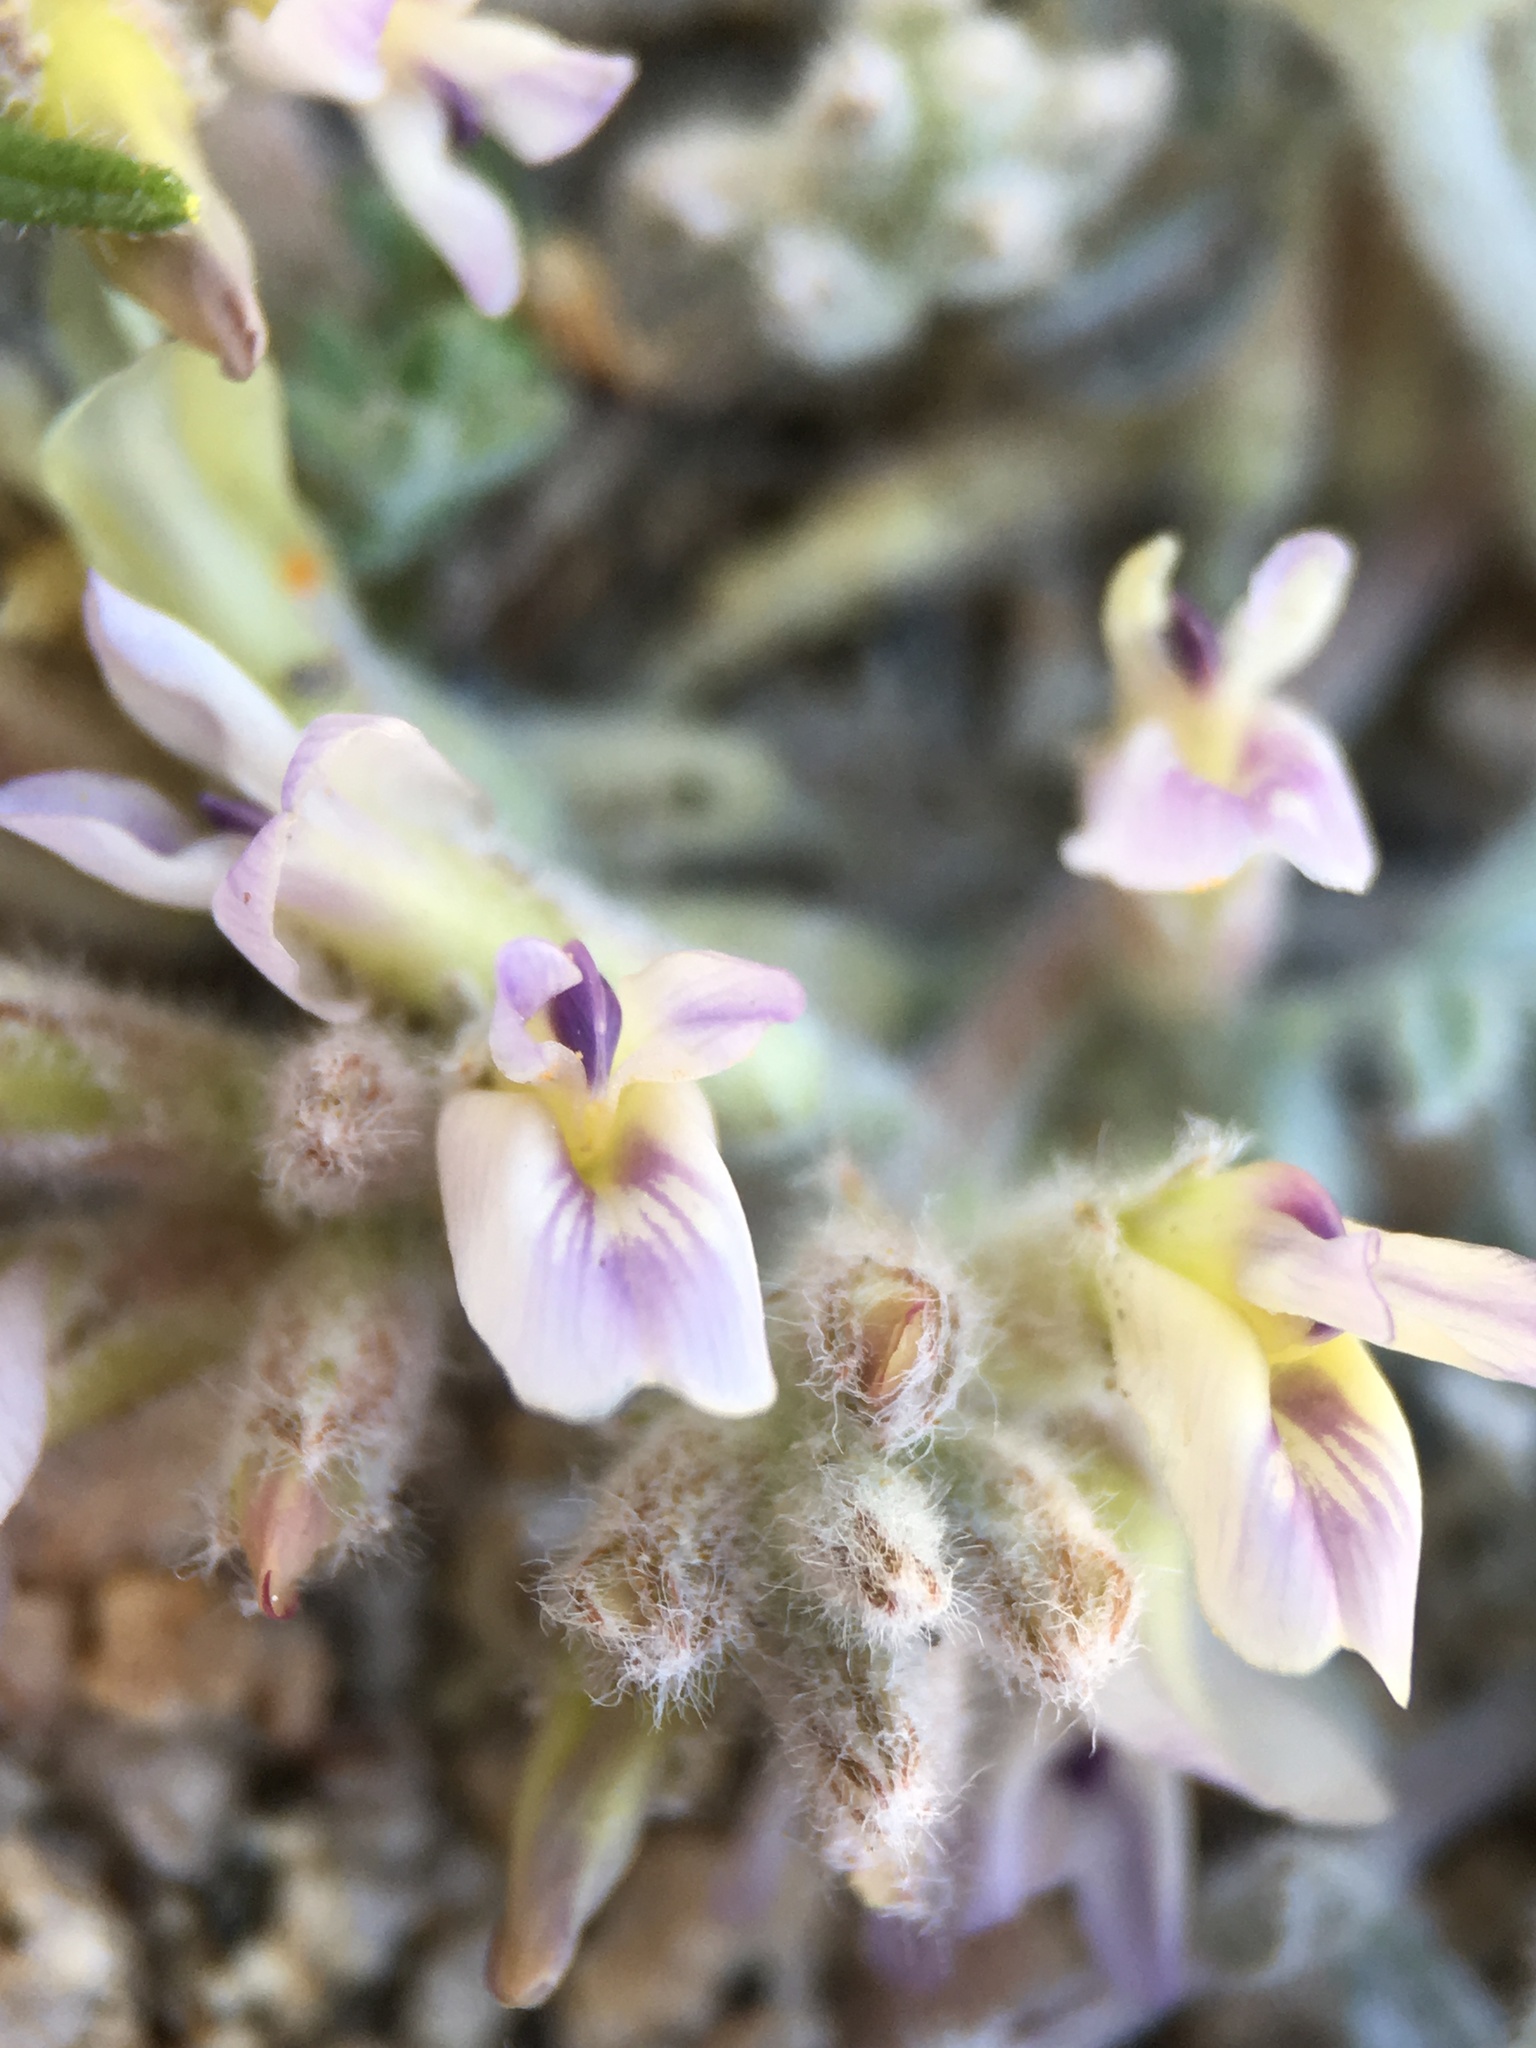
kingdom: Plantae
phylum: Tracheophyta
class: Magnoliopsida
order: Fabales
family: Fabaceae
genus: Astragalus
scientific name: Astragalus subvestitus
